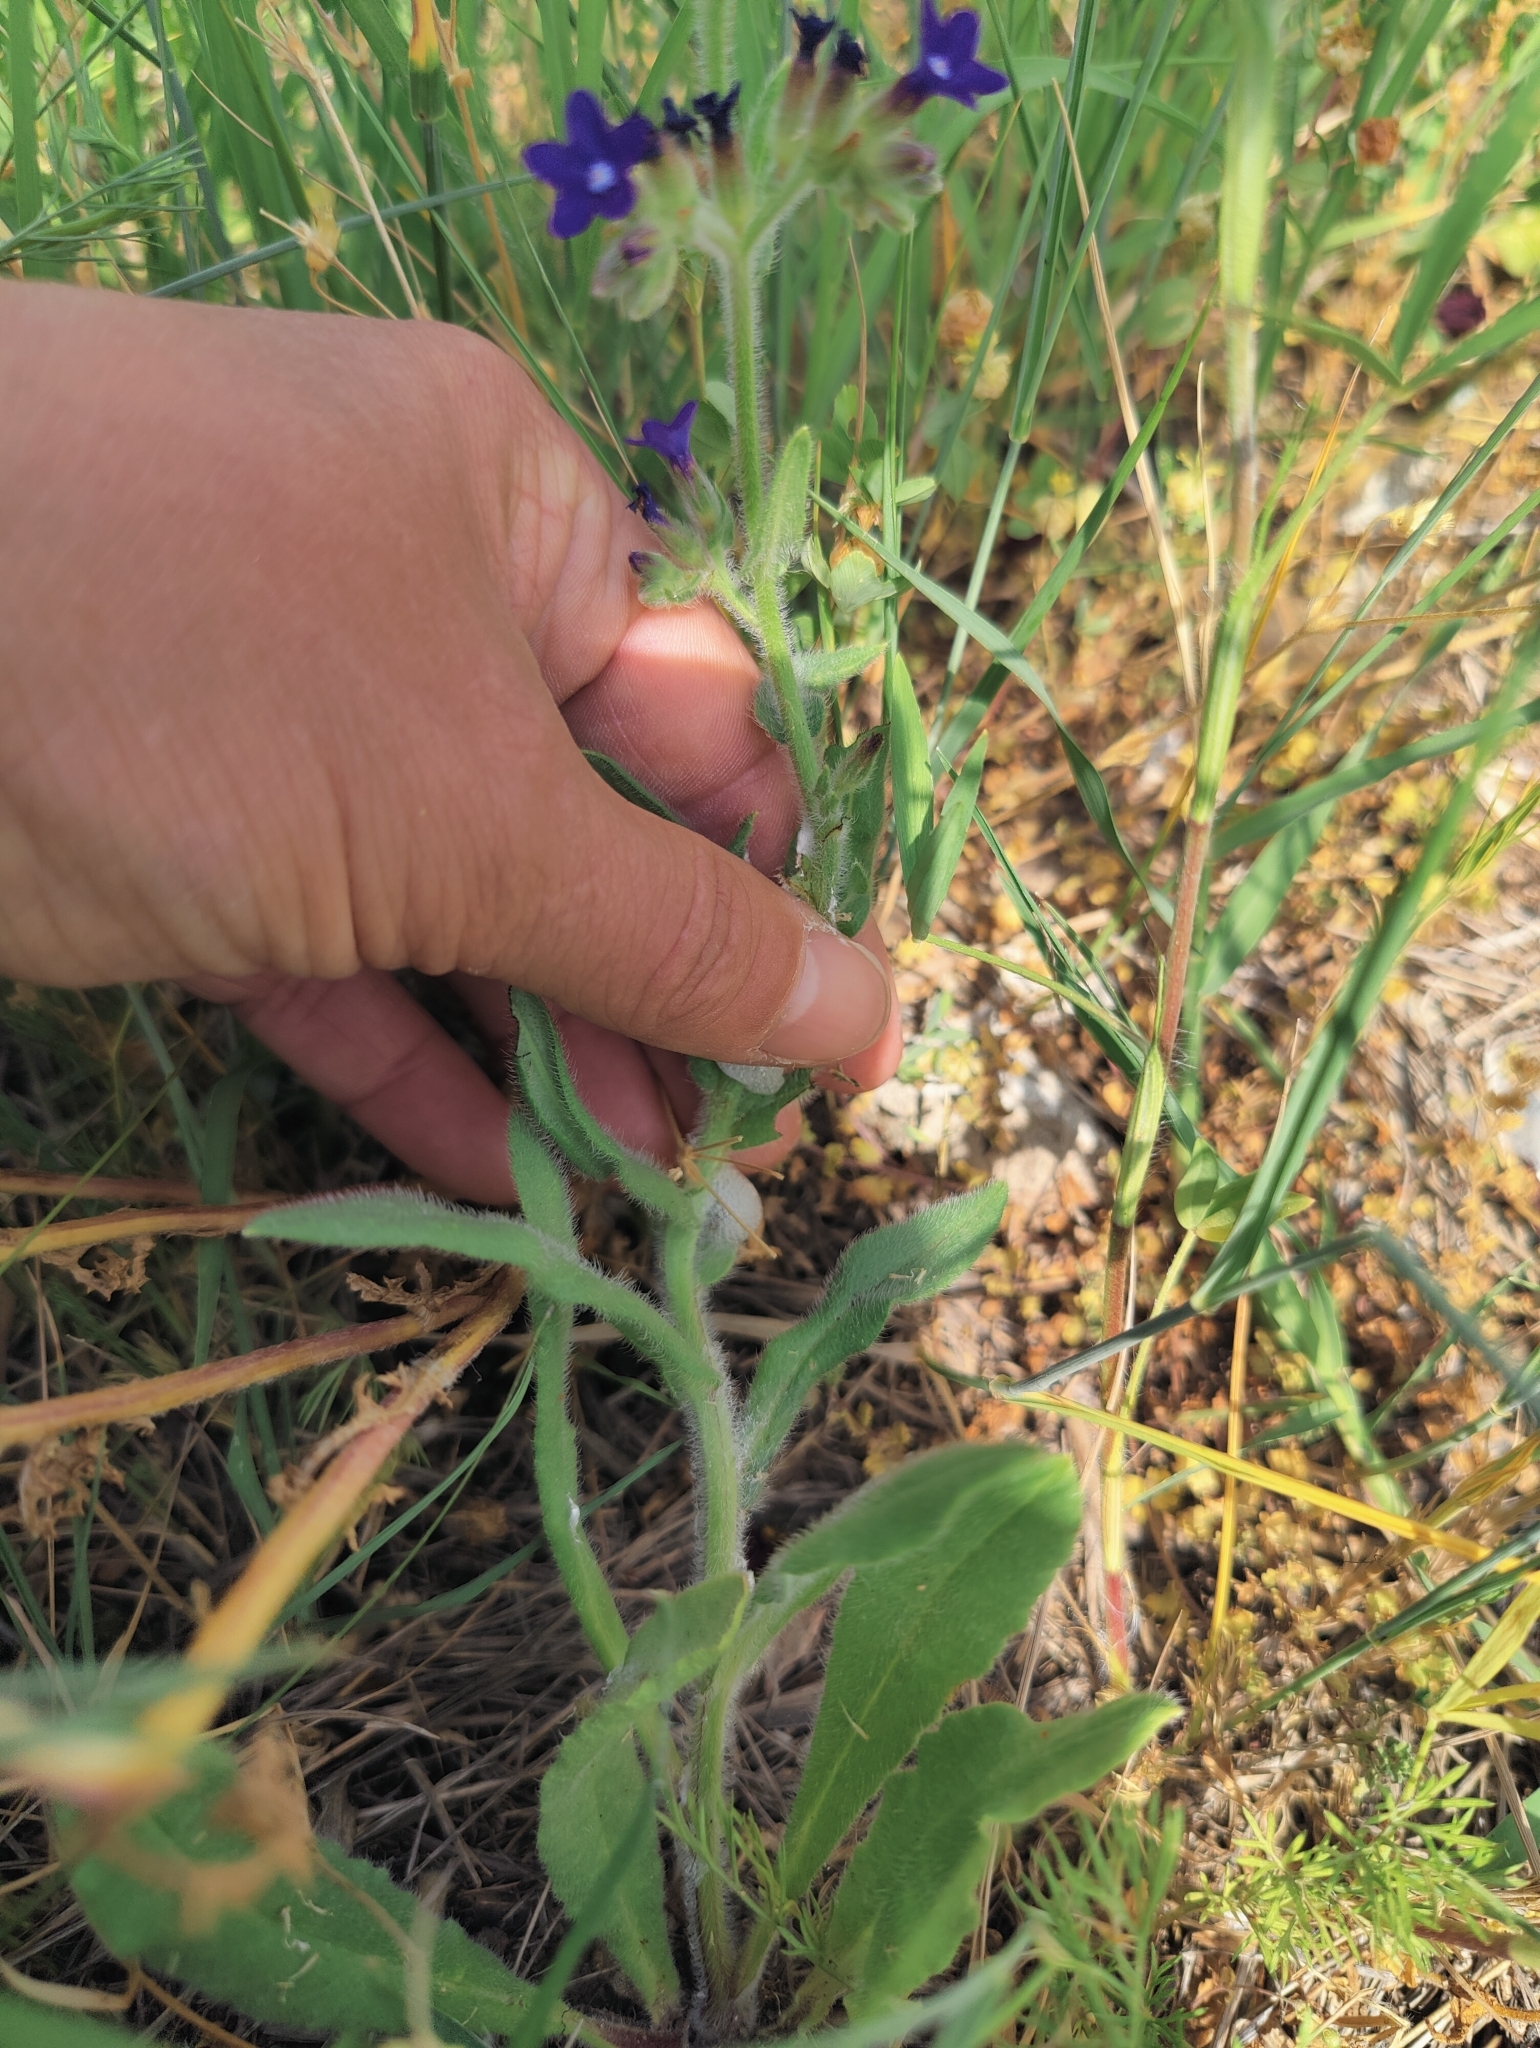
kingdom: Plantae
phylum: Tracheophyta
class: Magnoliopsida
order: Boraginales
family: Boraginaceae
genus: Anchusa
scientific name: Anchusa officinalis
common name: Alkanet
